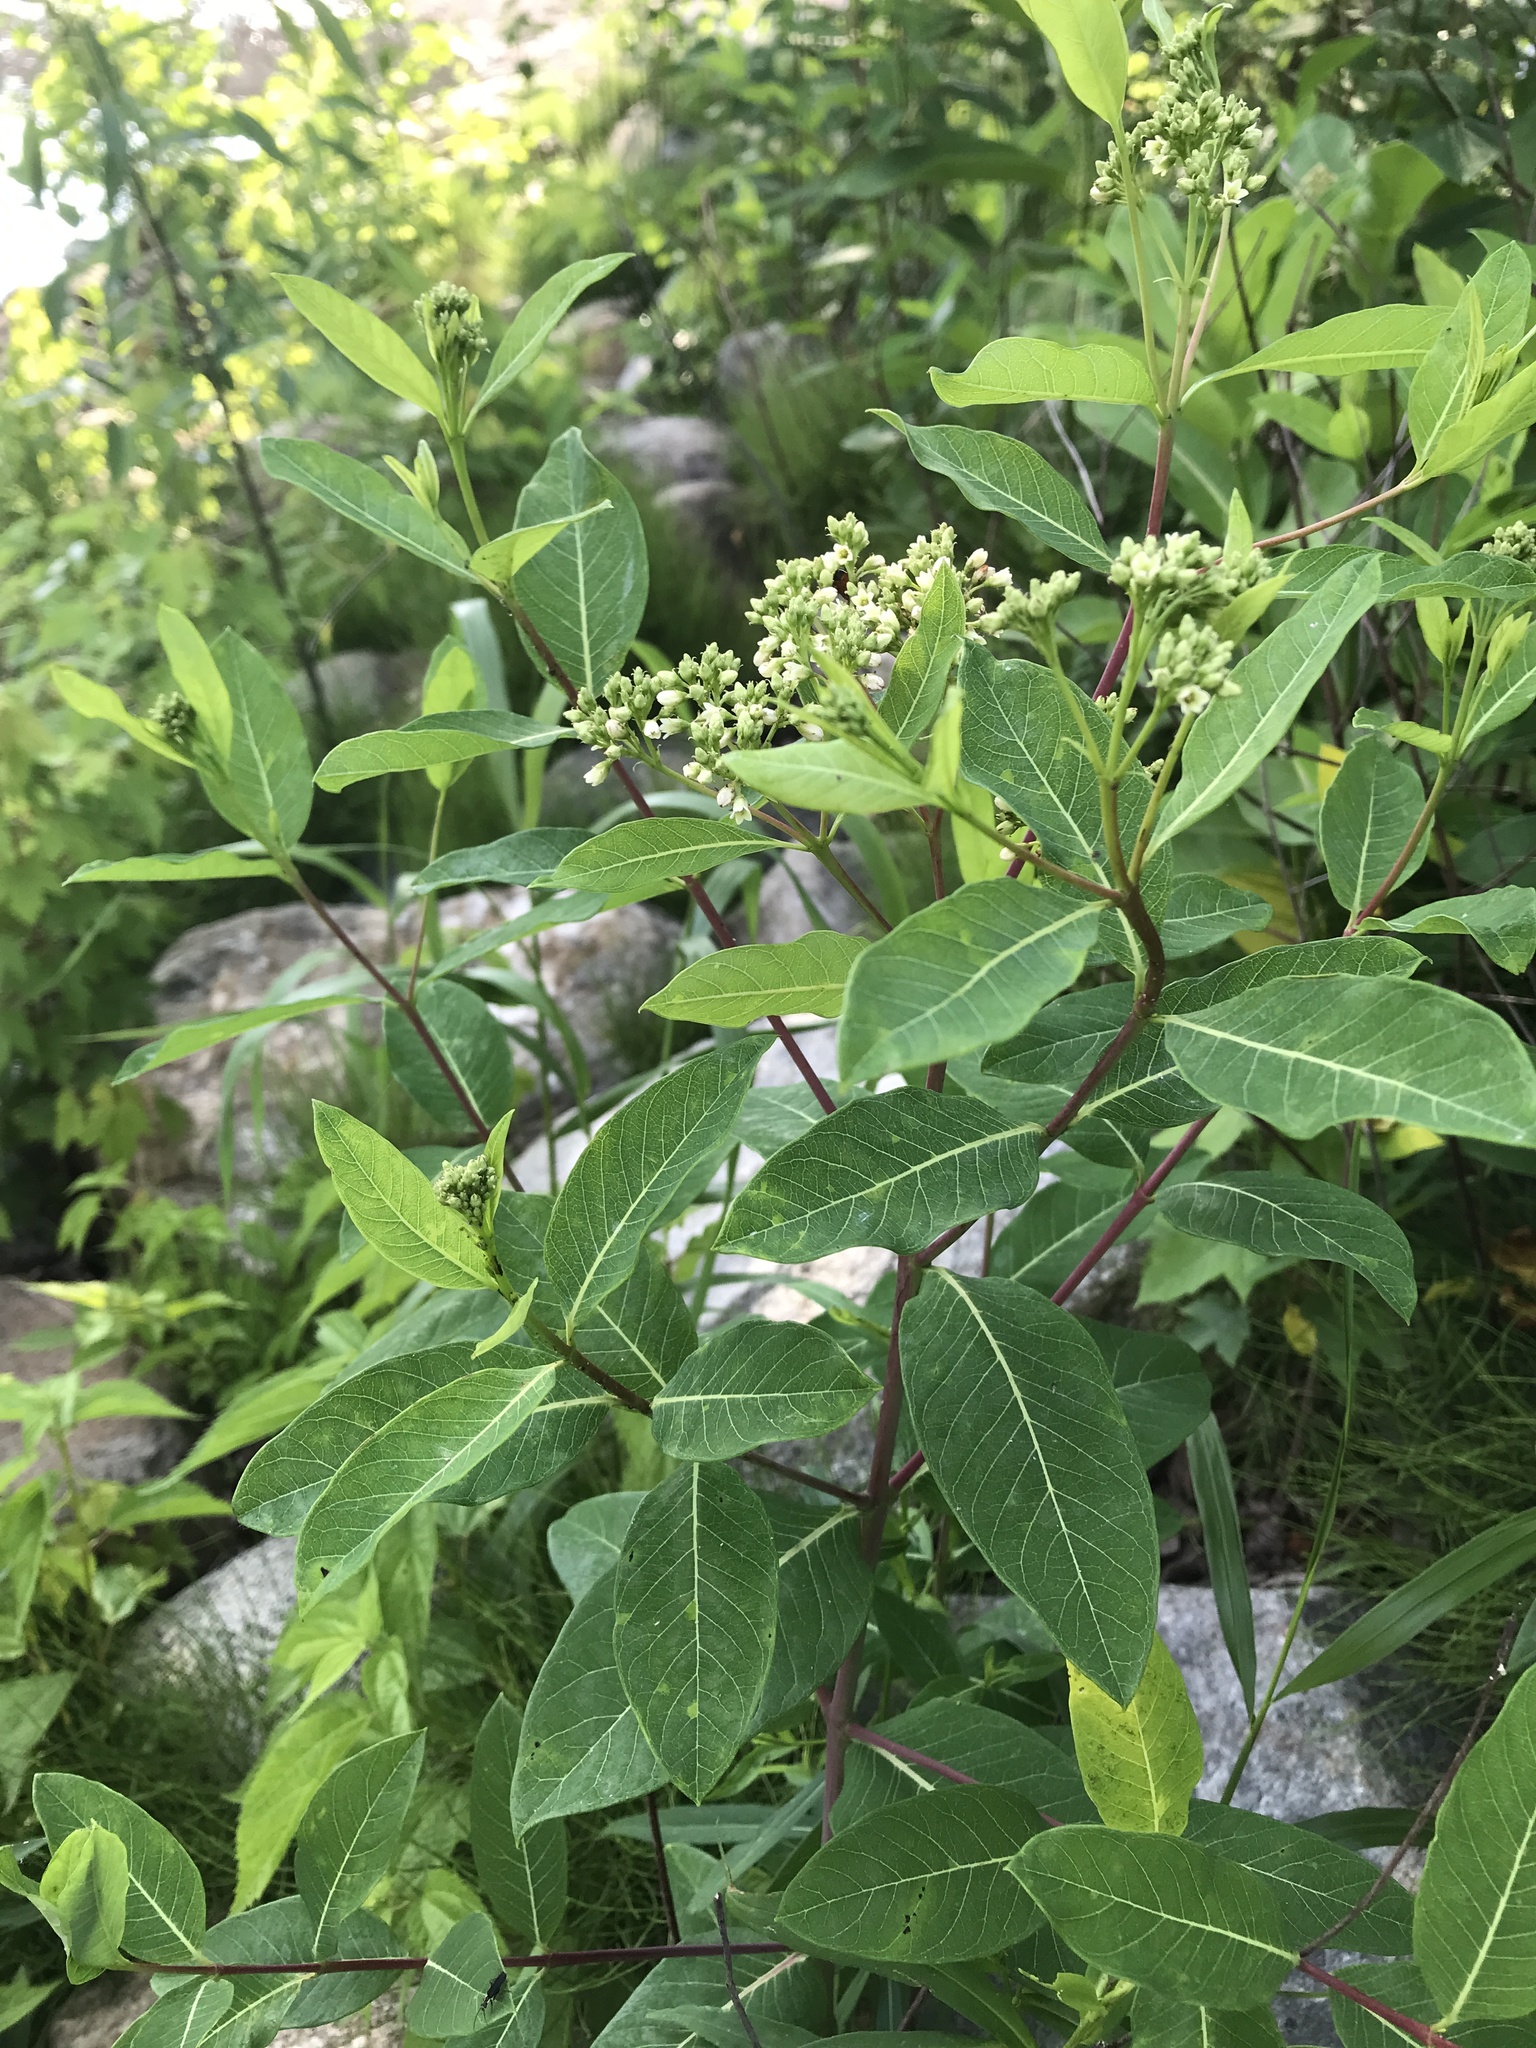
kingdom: Plantae
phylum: Tracheophyta
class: Magnoliopsida
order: Gentianales
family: Apocynaceae
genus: Apocynum
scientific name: Apocynum cannabinum
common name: Hemp dogbane
